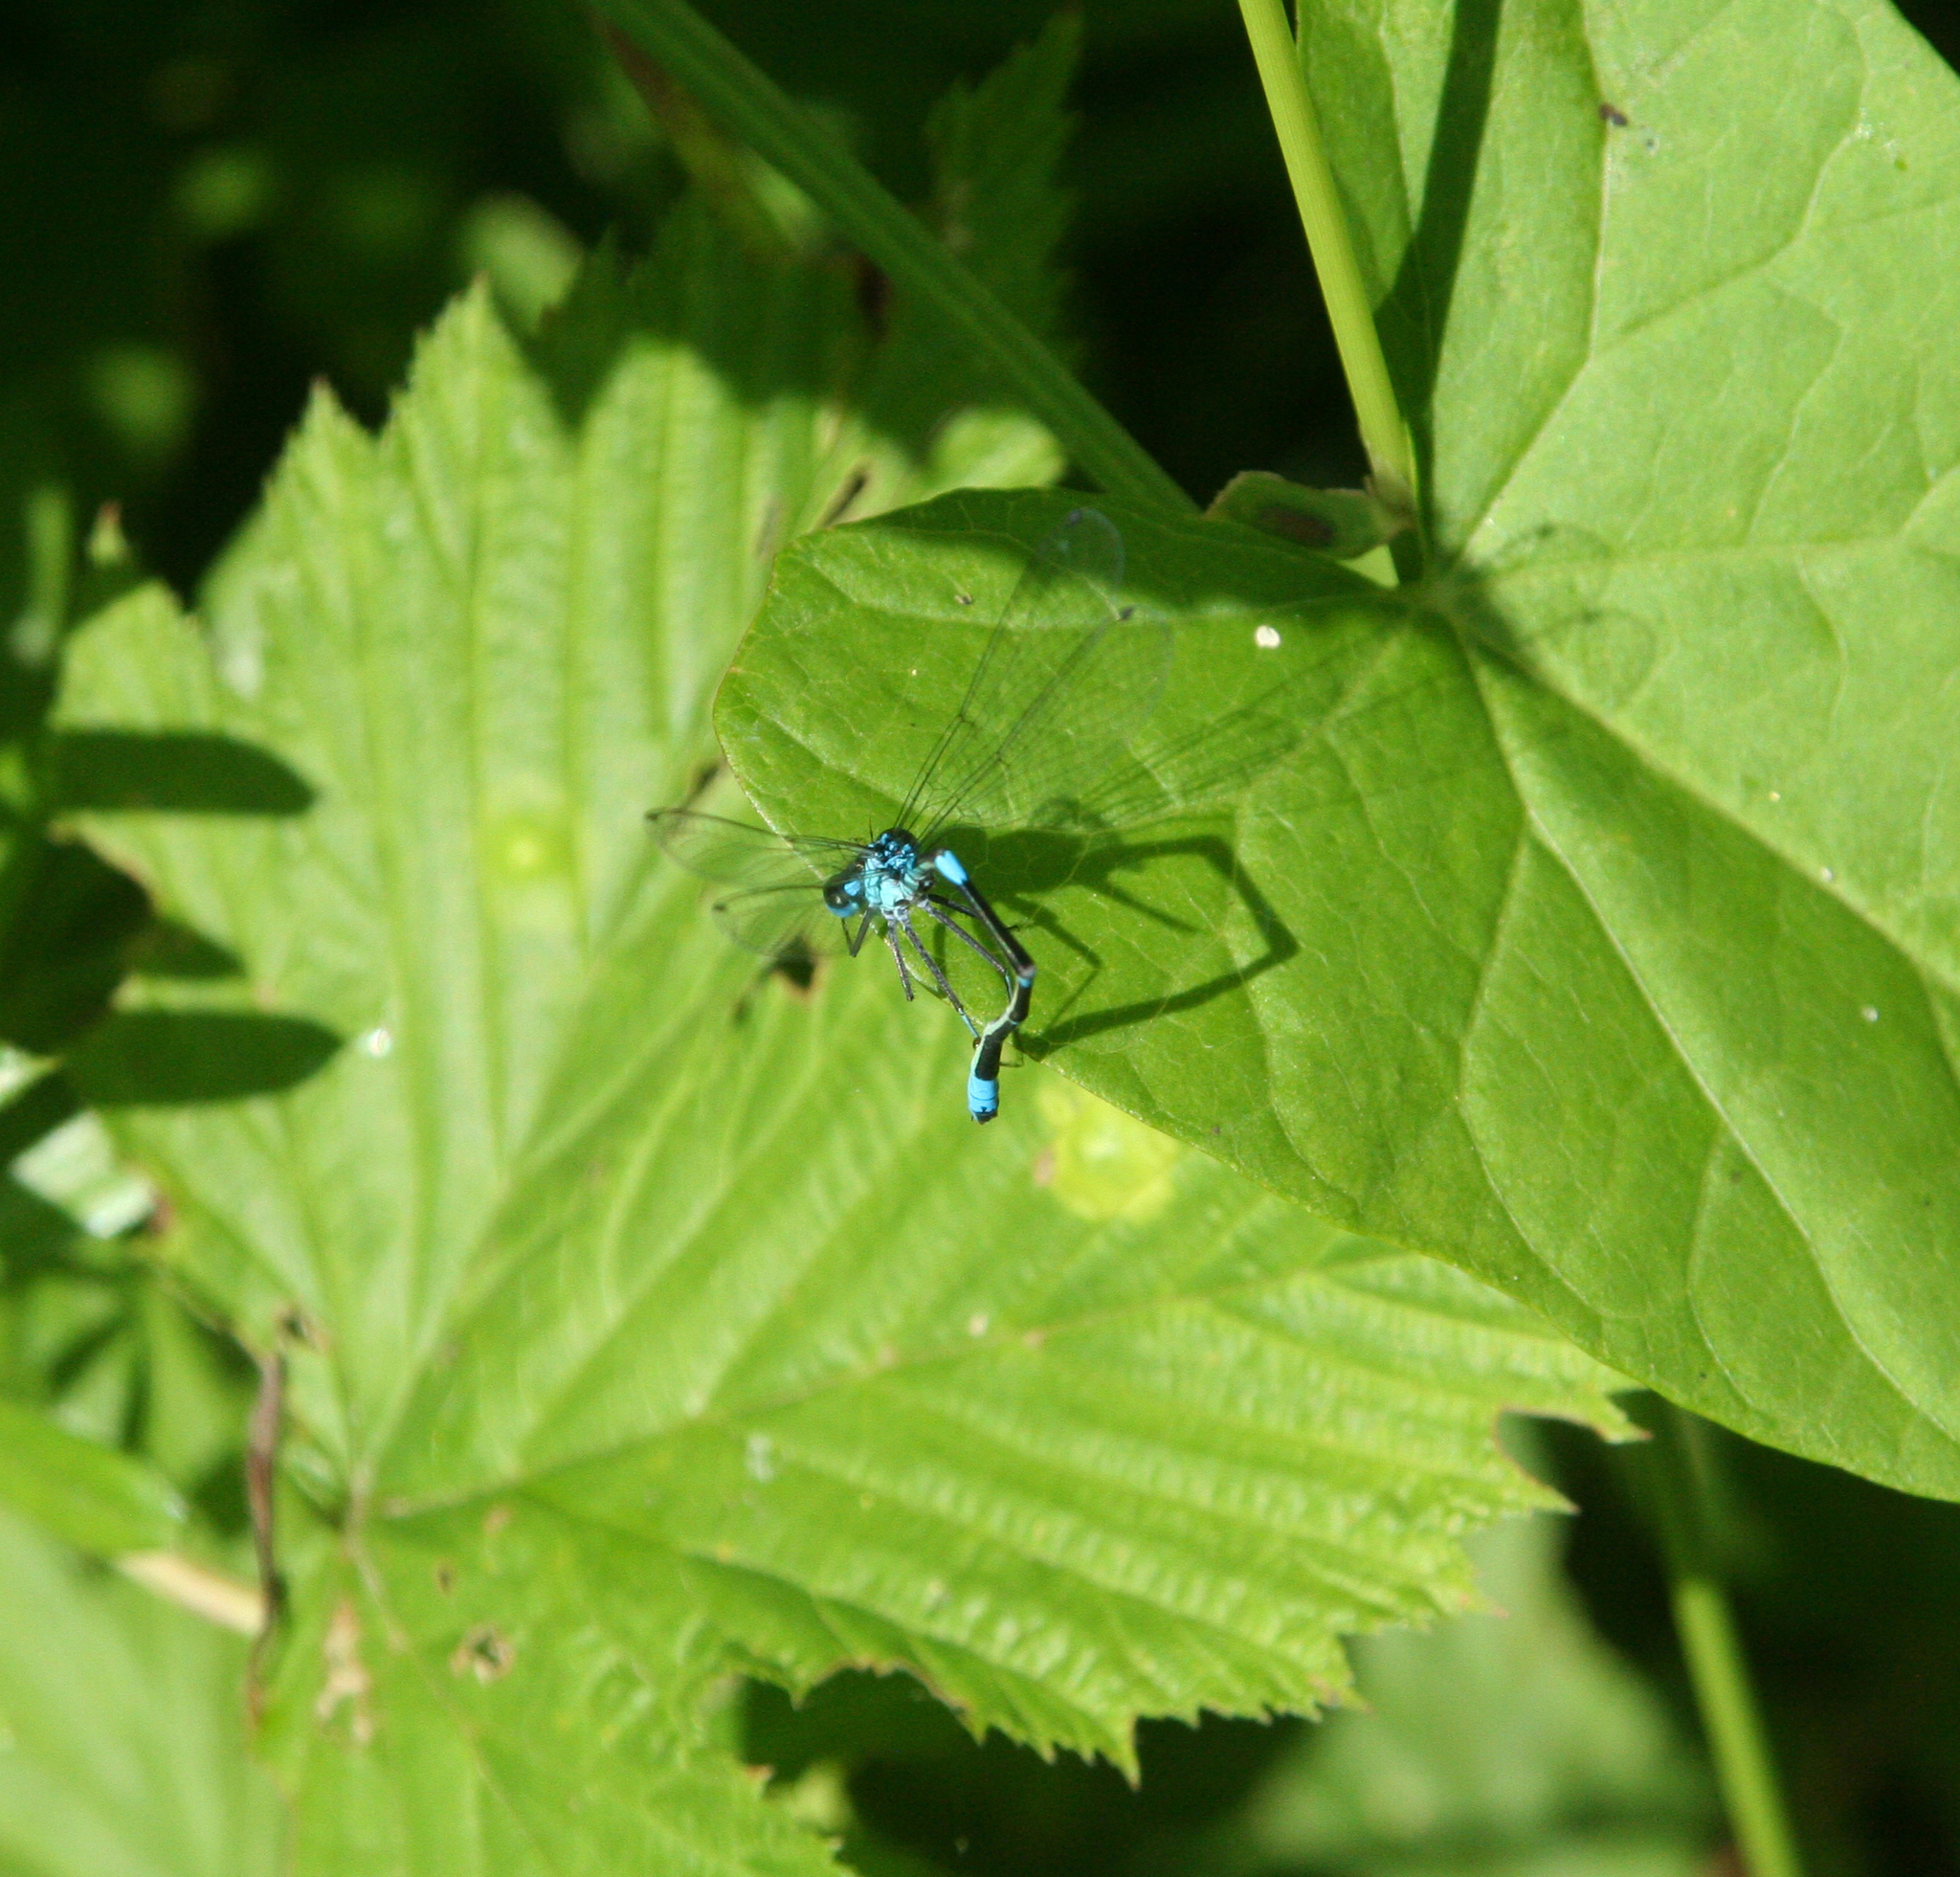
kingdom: Animalia
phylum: Arthropoda
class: Insecta
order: Odonata
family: Coenagrionidae
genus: Coenagrion
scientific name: Coenagrion pulchellum
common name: Variable bluet
